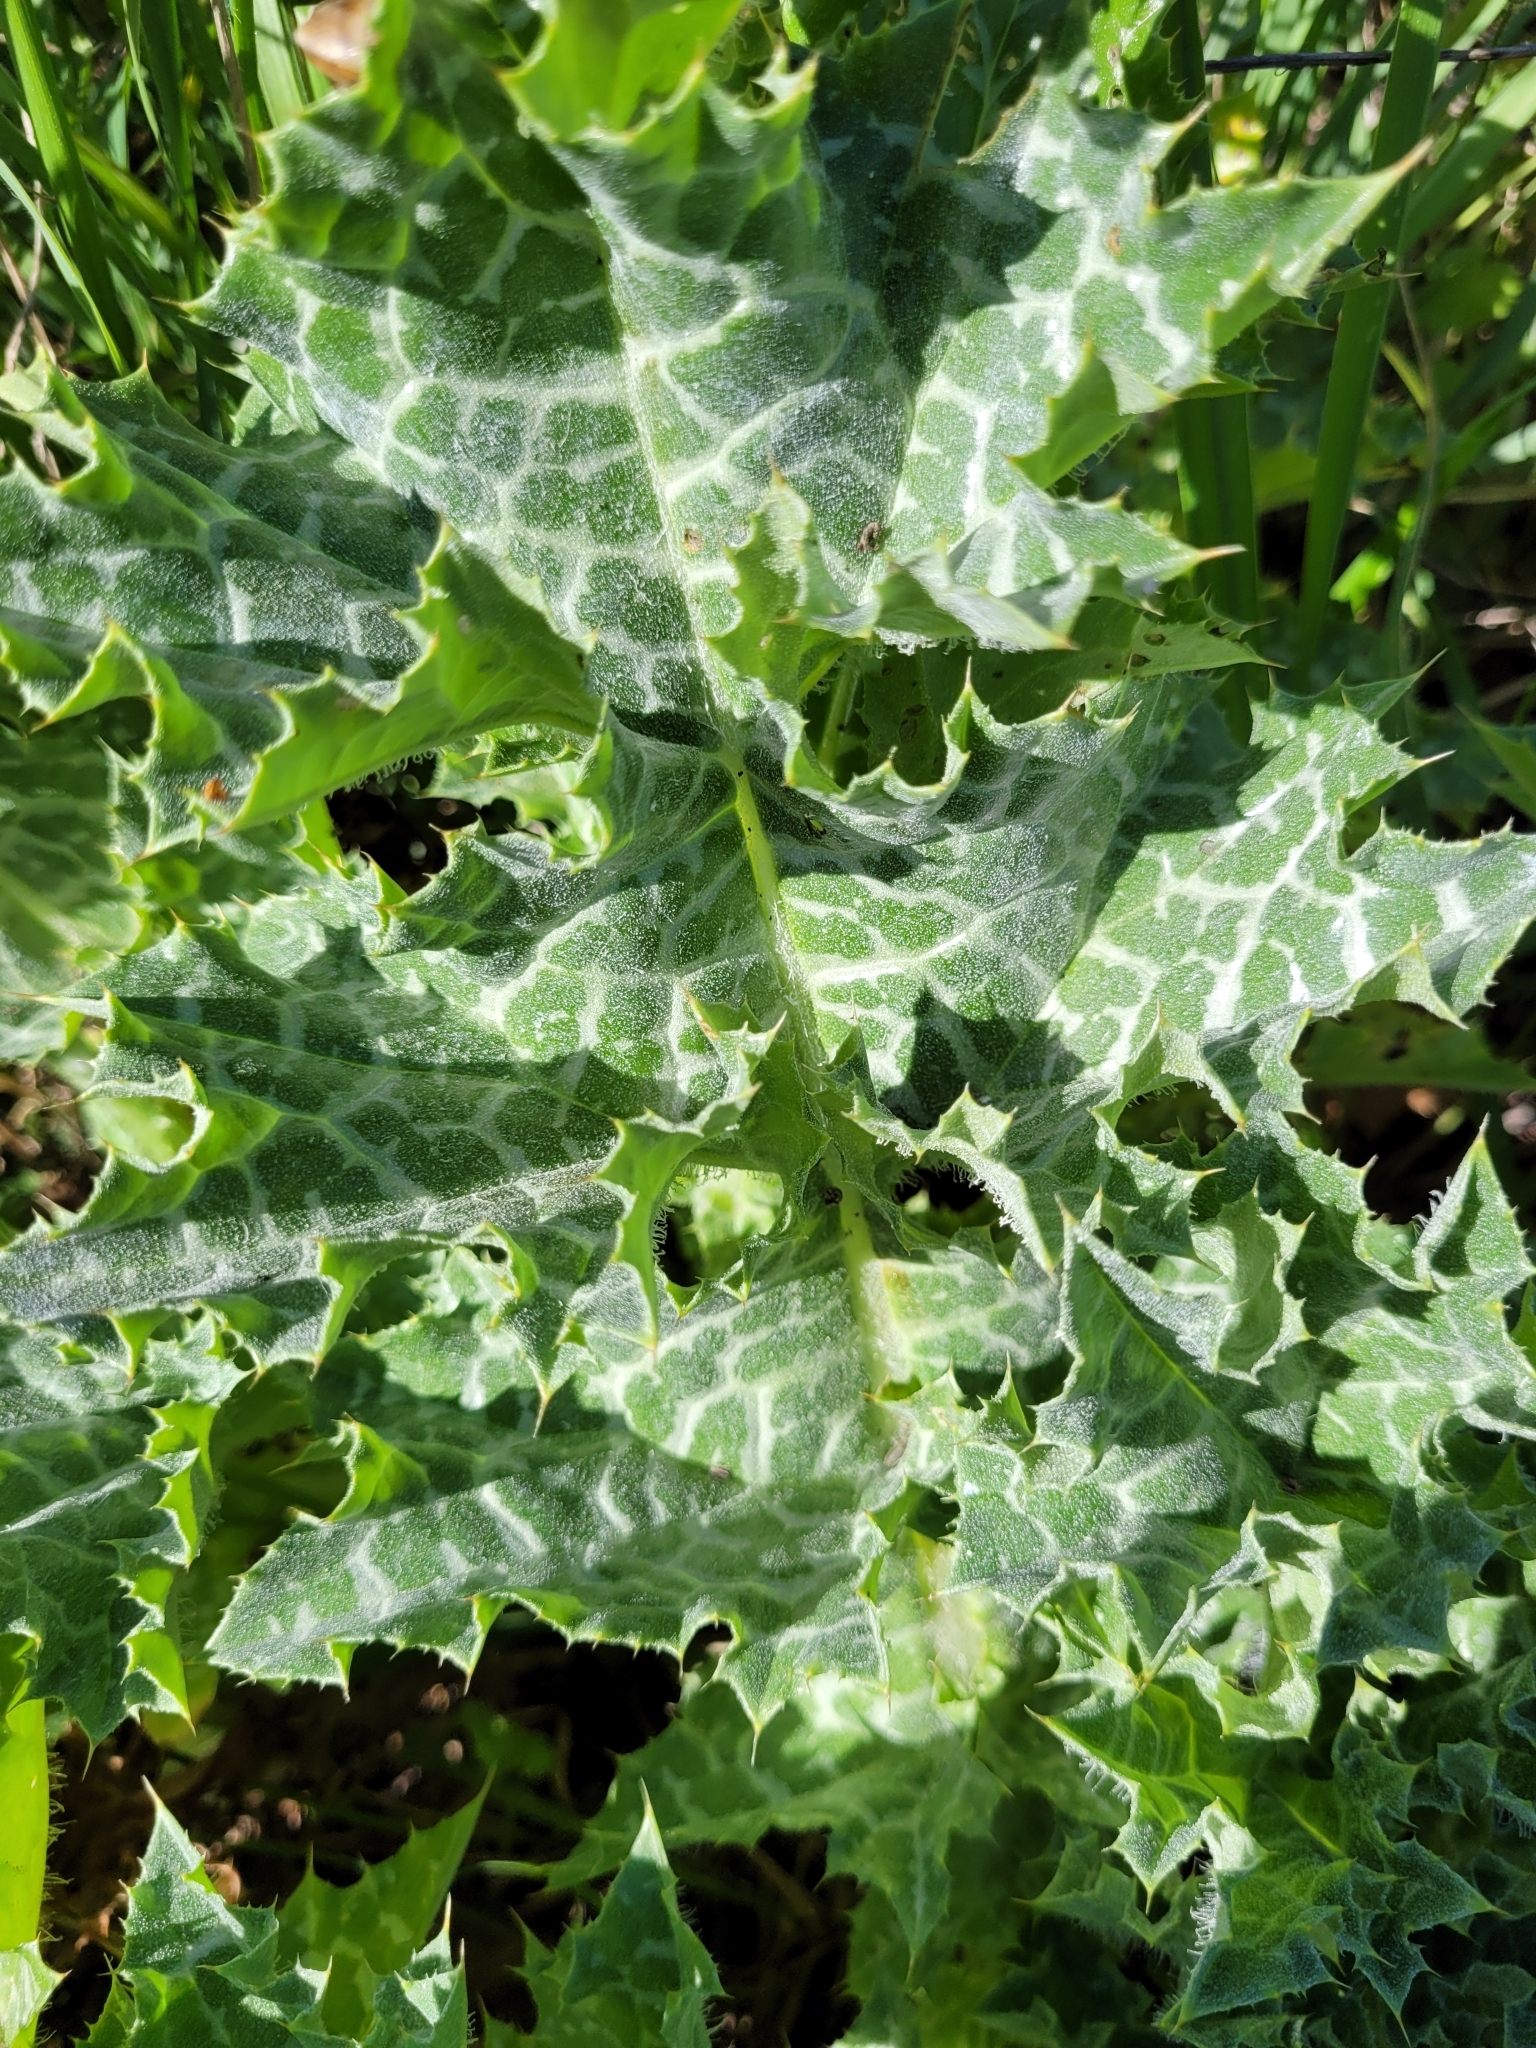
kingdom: Plantae
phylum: Tracheophyta
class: Magnoliopsida
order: Asterales
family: Asteraceae
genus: Silybum
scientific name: Silybum marianum
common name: Milk thistle
